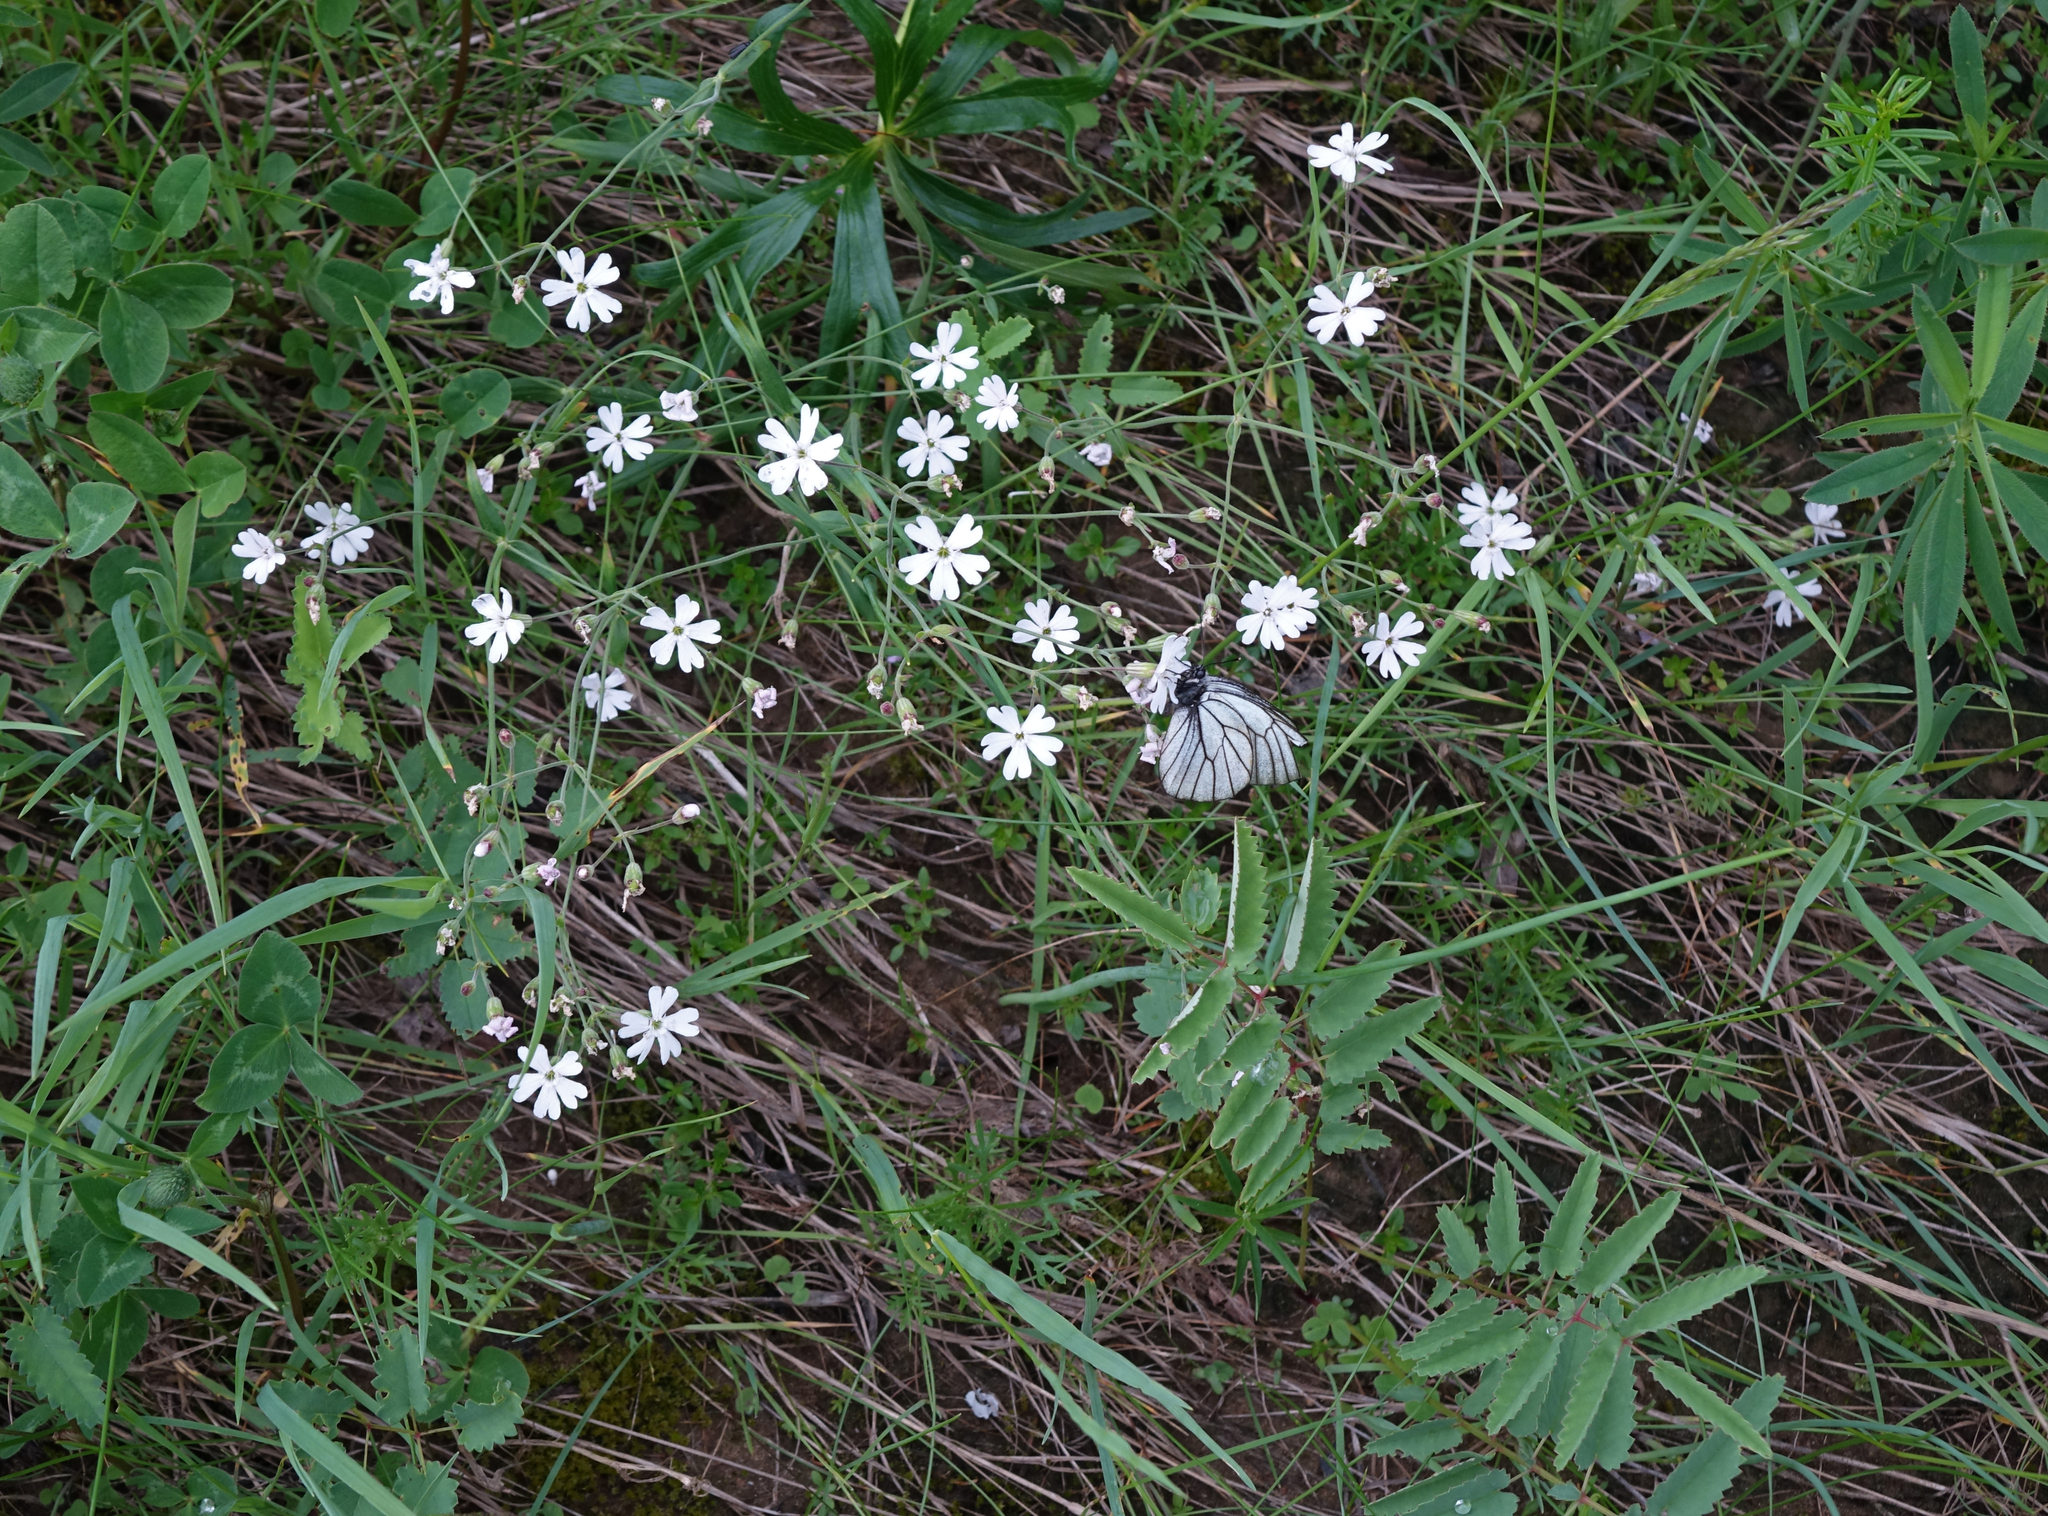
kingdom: Plantae
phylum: Tracheophyta
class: Magnoliopsida
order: Caryophyllales
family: Caryophyllaceae
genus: Silene
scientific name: Silene orientalimongolica
